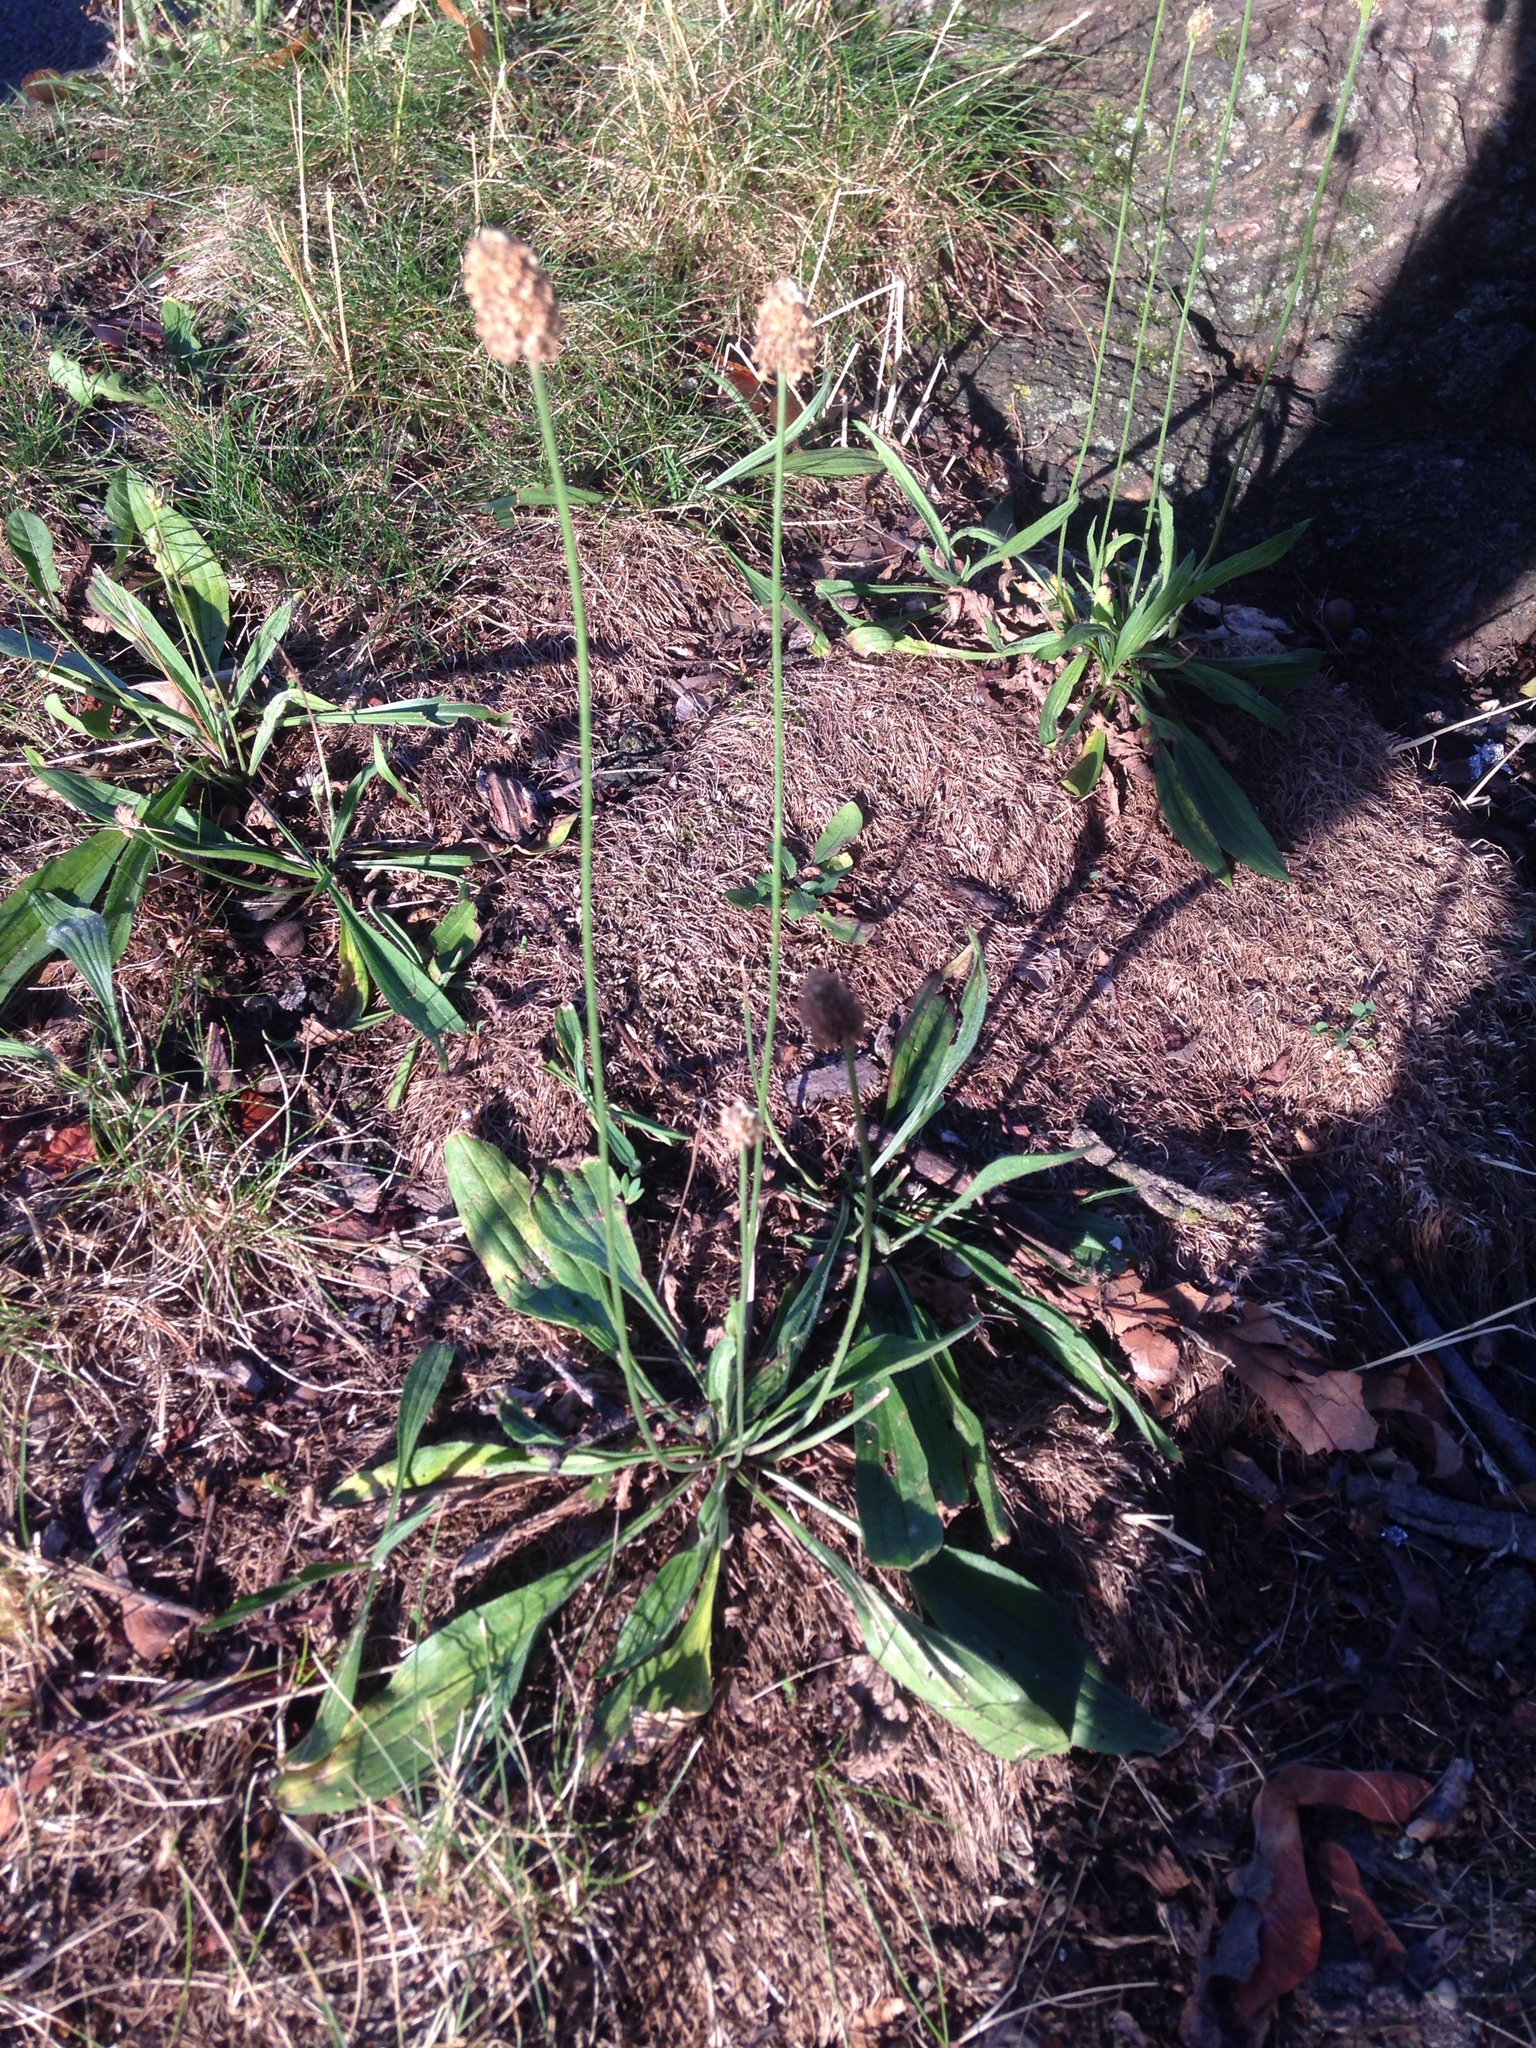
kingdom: Plantae
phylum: Tracheophyta
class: Magnoliopsida
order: Lamiales
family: Plantaginaceae
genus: Plantago
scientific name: Plantago lanceolata
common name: Ribwort plantain
